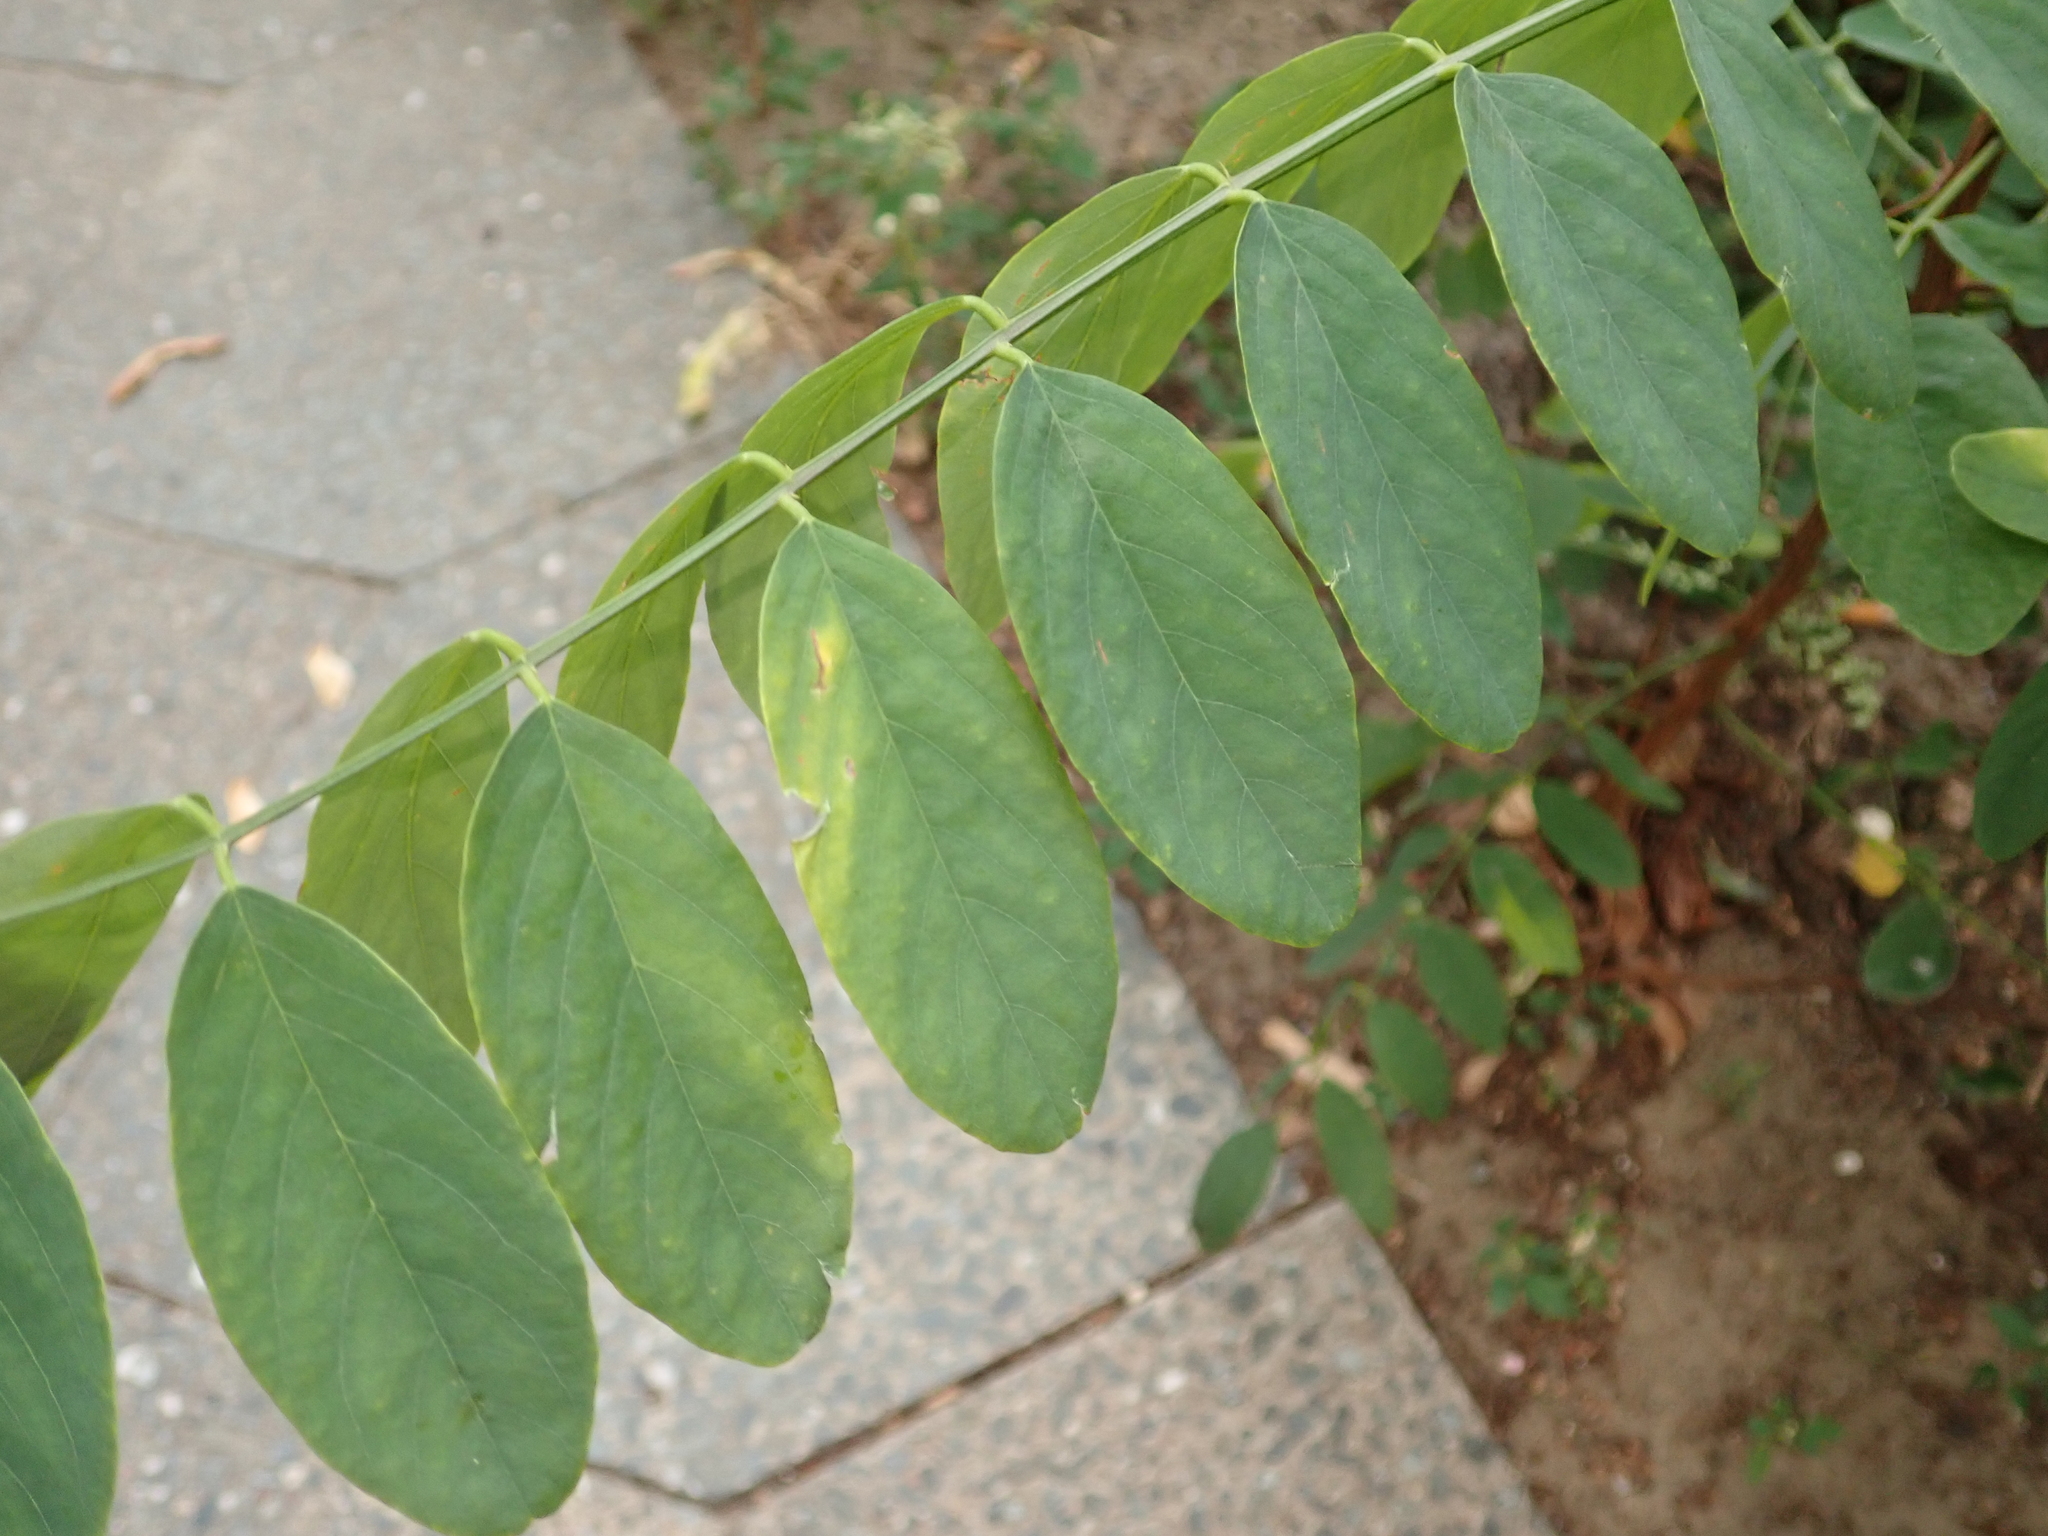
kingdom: Plantae
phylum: Tracheophyta
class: Magnoliopsida
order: Fabales
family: Fabaceae
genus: Robinia
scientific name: Robinia pseudoacacia
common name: Black locust
